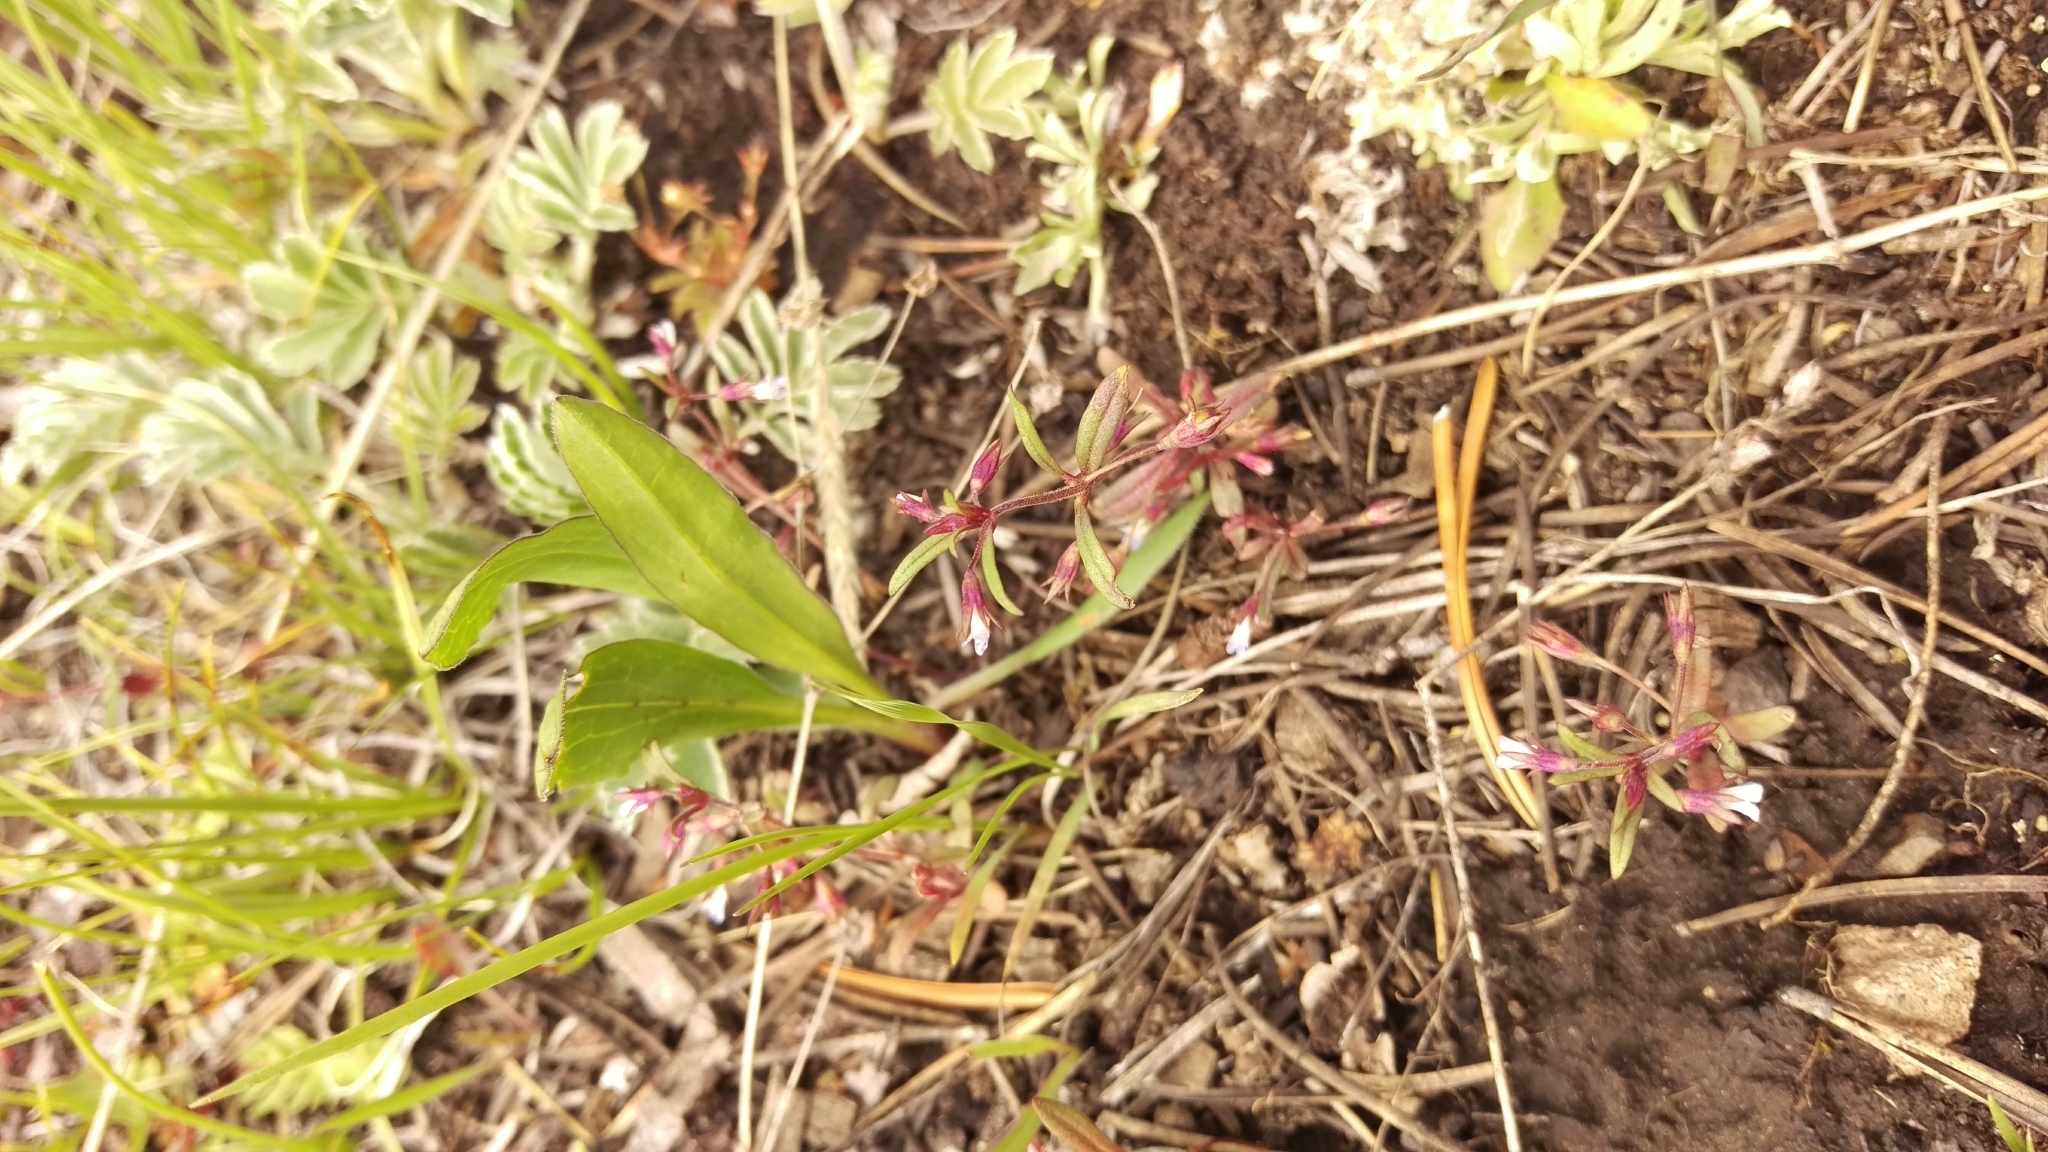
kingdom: Plantae
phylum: Tracheophyta
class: Magnoliopsida
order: Lamiales
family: Plantaginaceae
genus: Collinsia
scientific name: Collinsia parviflora
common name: Blue-lips
